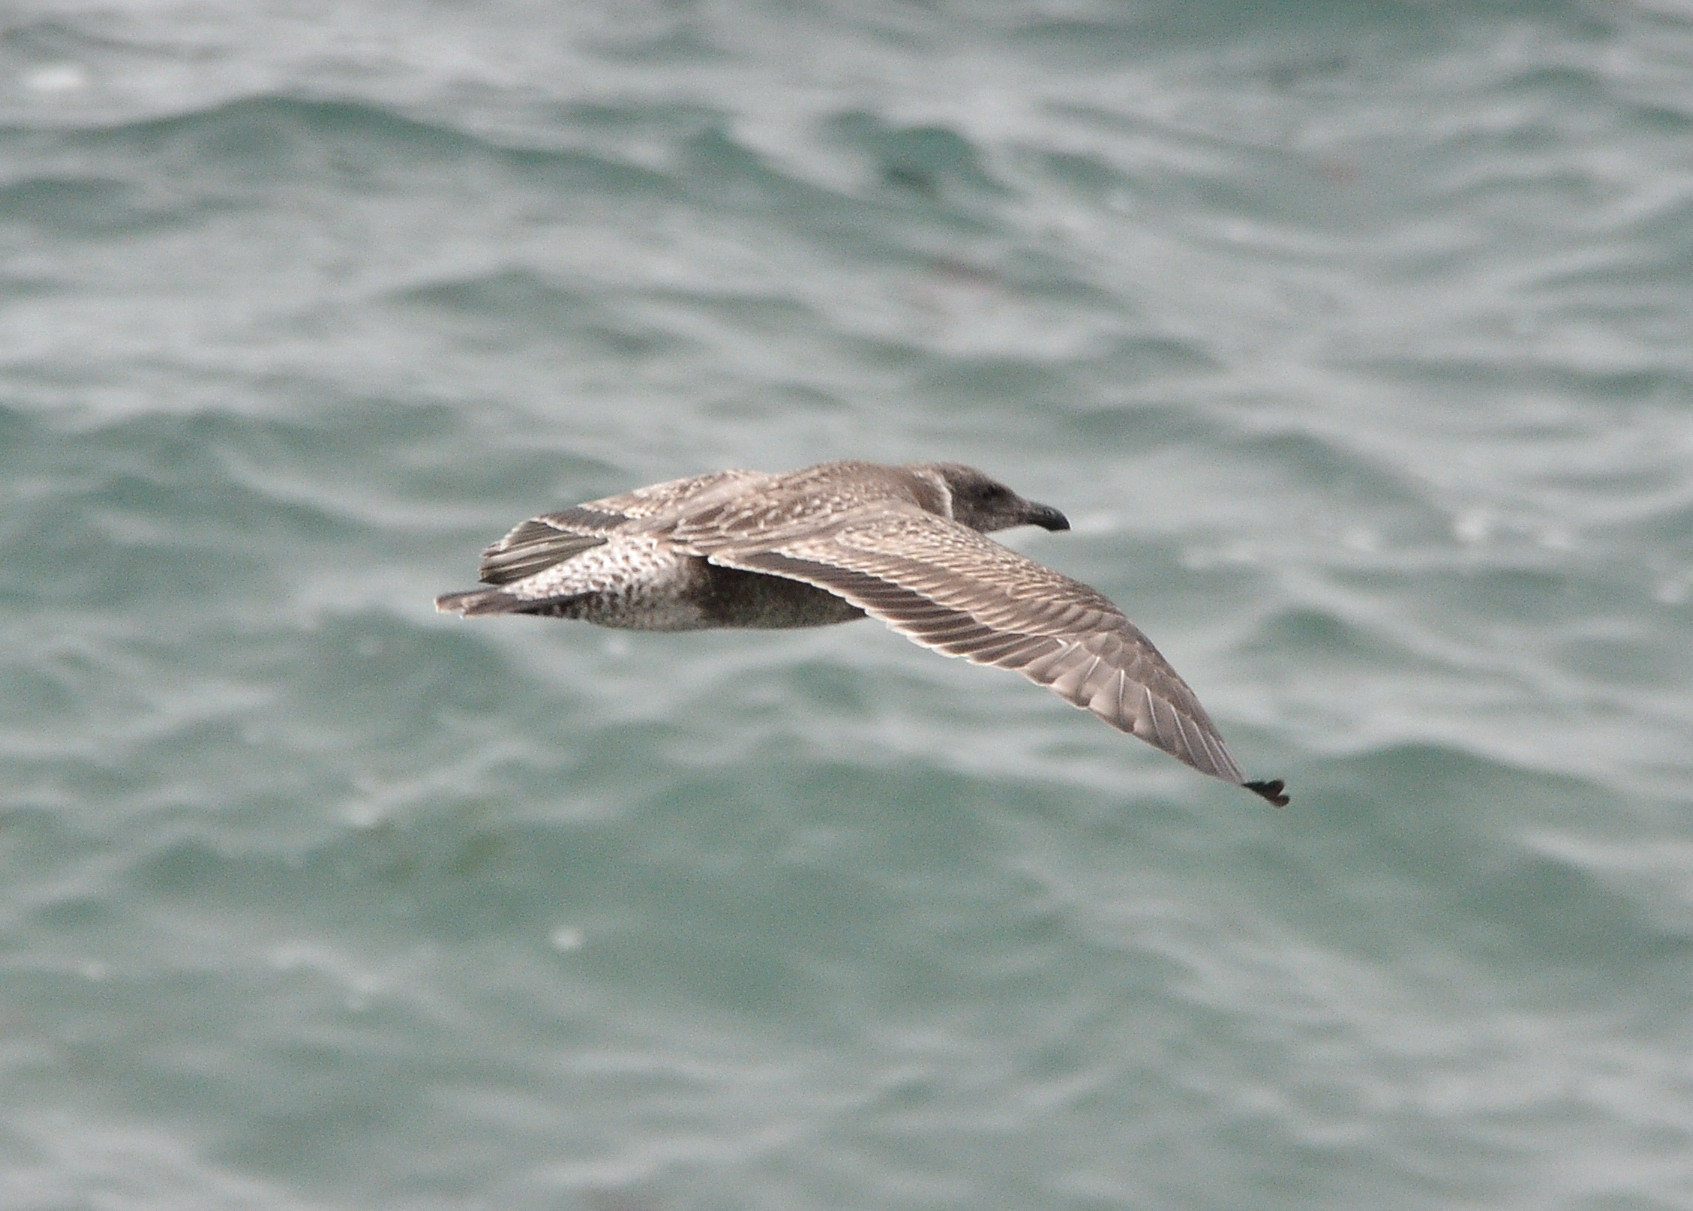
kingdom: Animalia
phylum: Chordata
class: Aves
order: Charadriiformes
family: Laridae
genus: Larus
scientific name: Larus occidentalis
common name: Western gull
